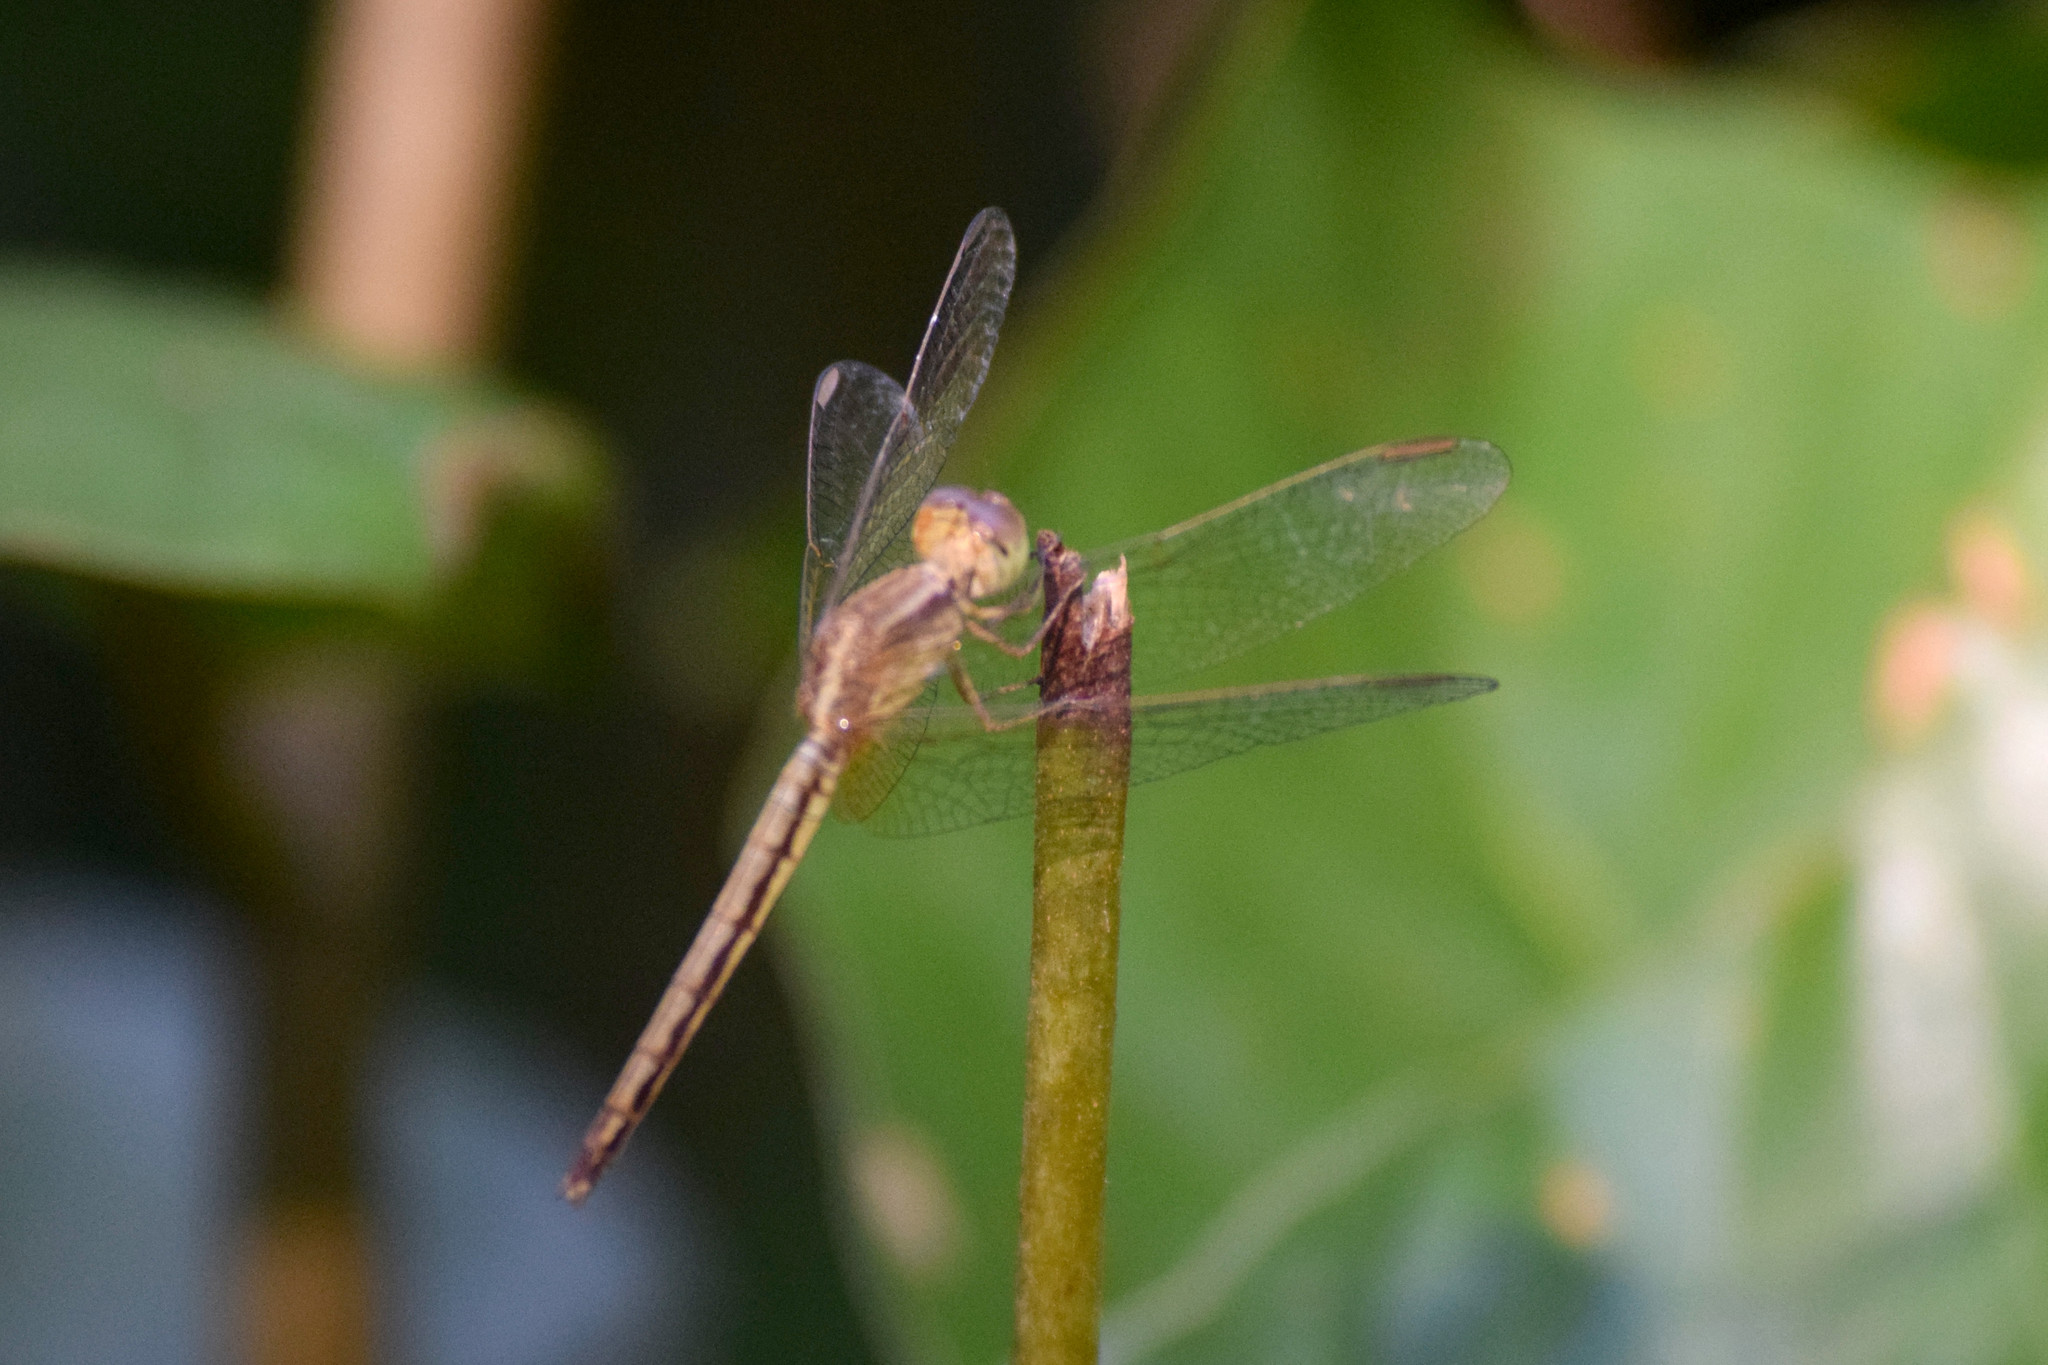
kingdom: Animalia
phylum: Arthropoda
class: Insecta
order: Odonata
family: Libellulidae
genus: Neurothemis
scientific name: Neurothemis intermedia
